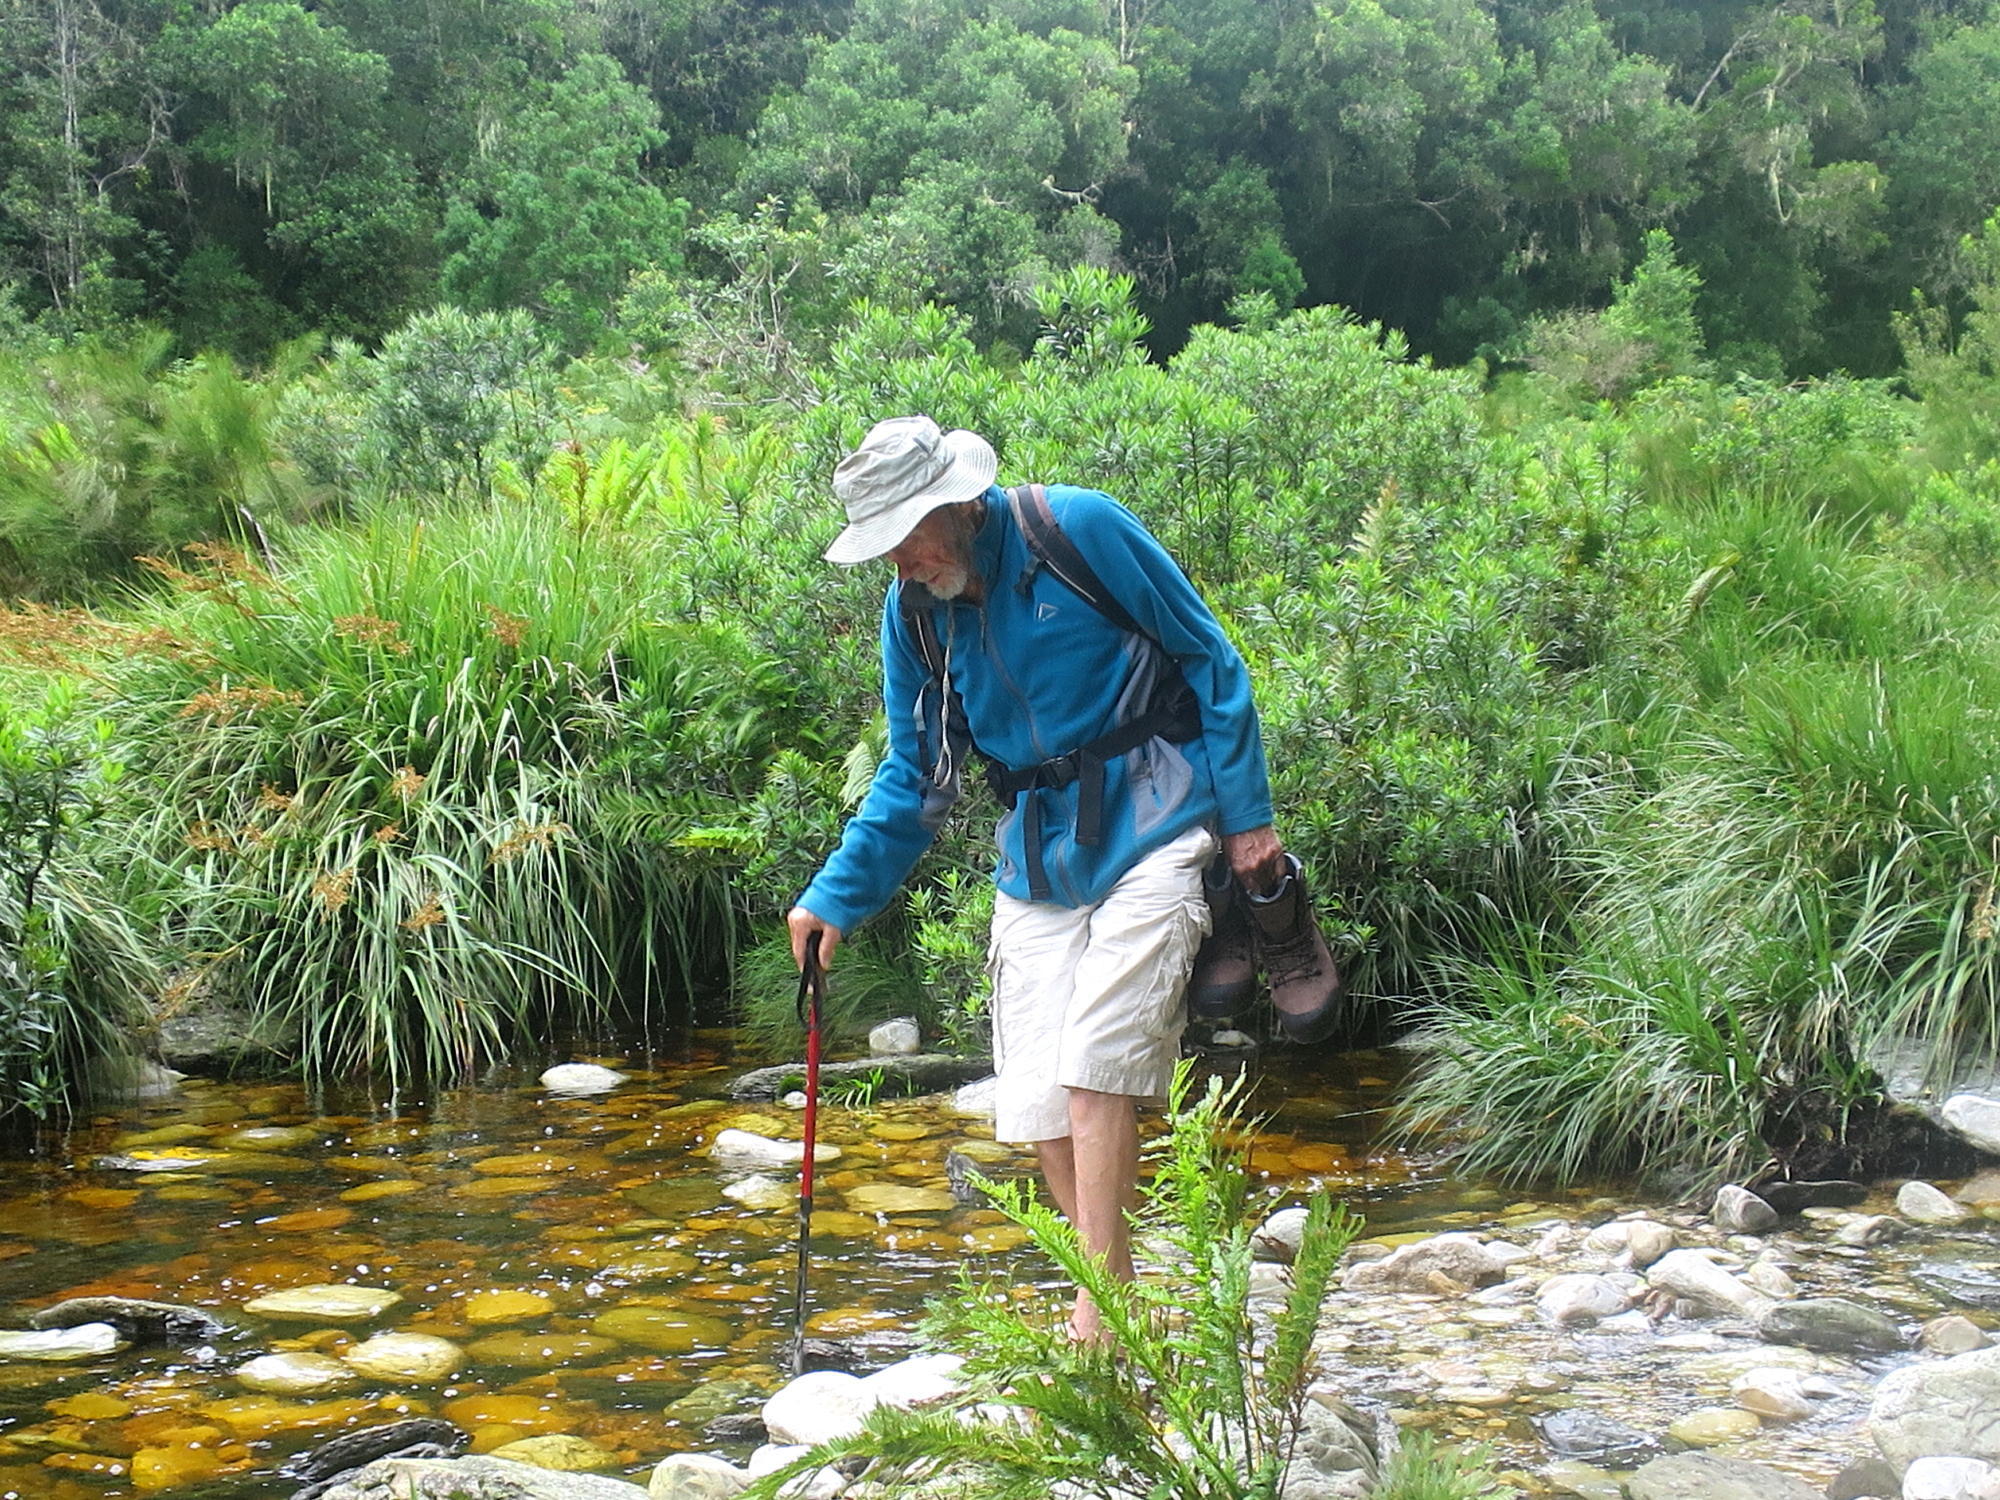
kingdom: Plantae
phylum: Tracheophyta
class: Liliopsida
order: Poales
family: Cyperaceae
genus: Cladium
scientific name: Cladium mariscus
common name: Great fen-sedge
